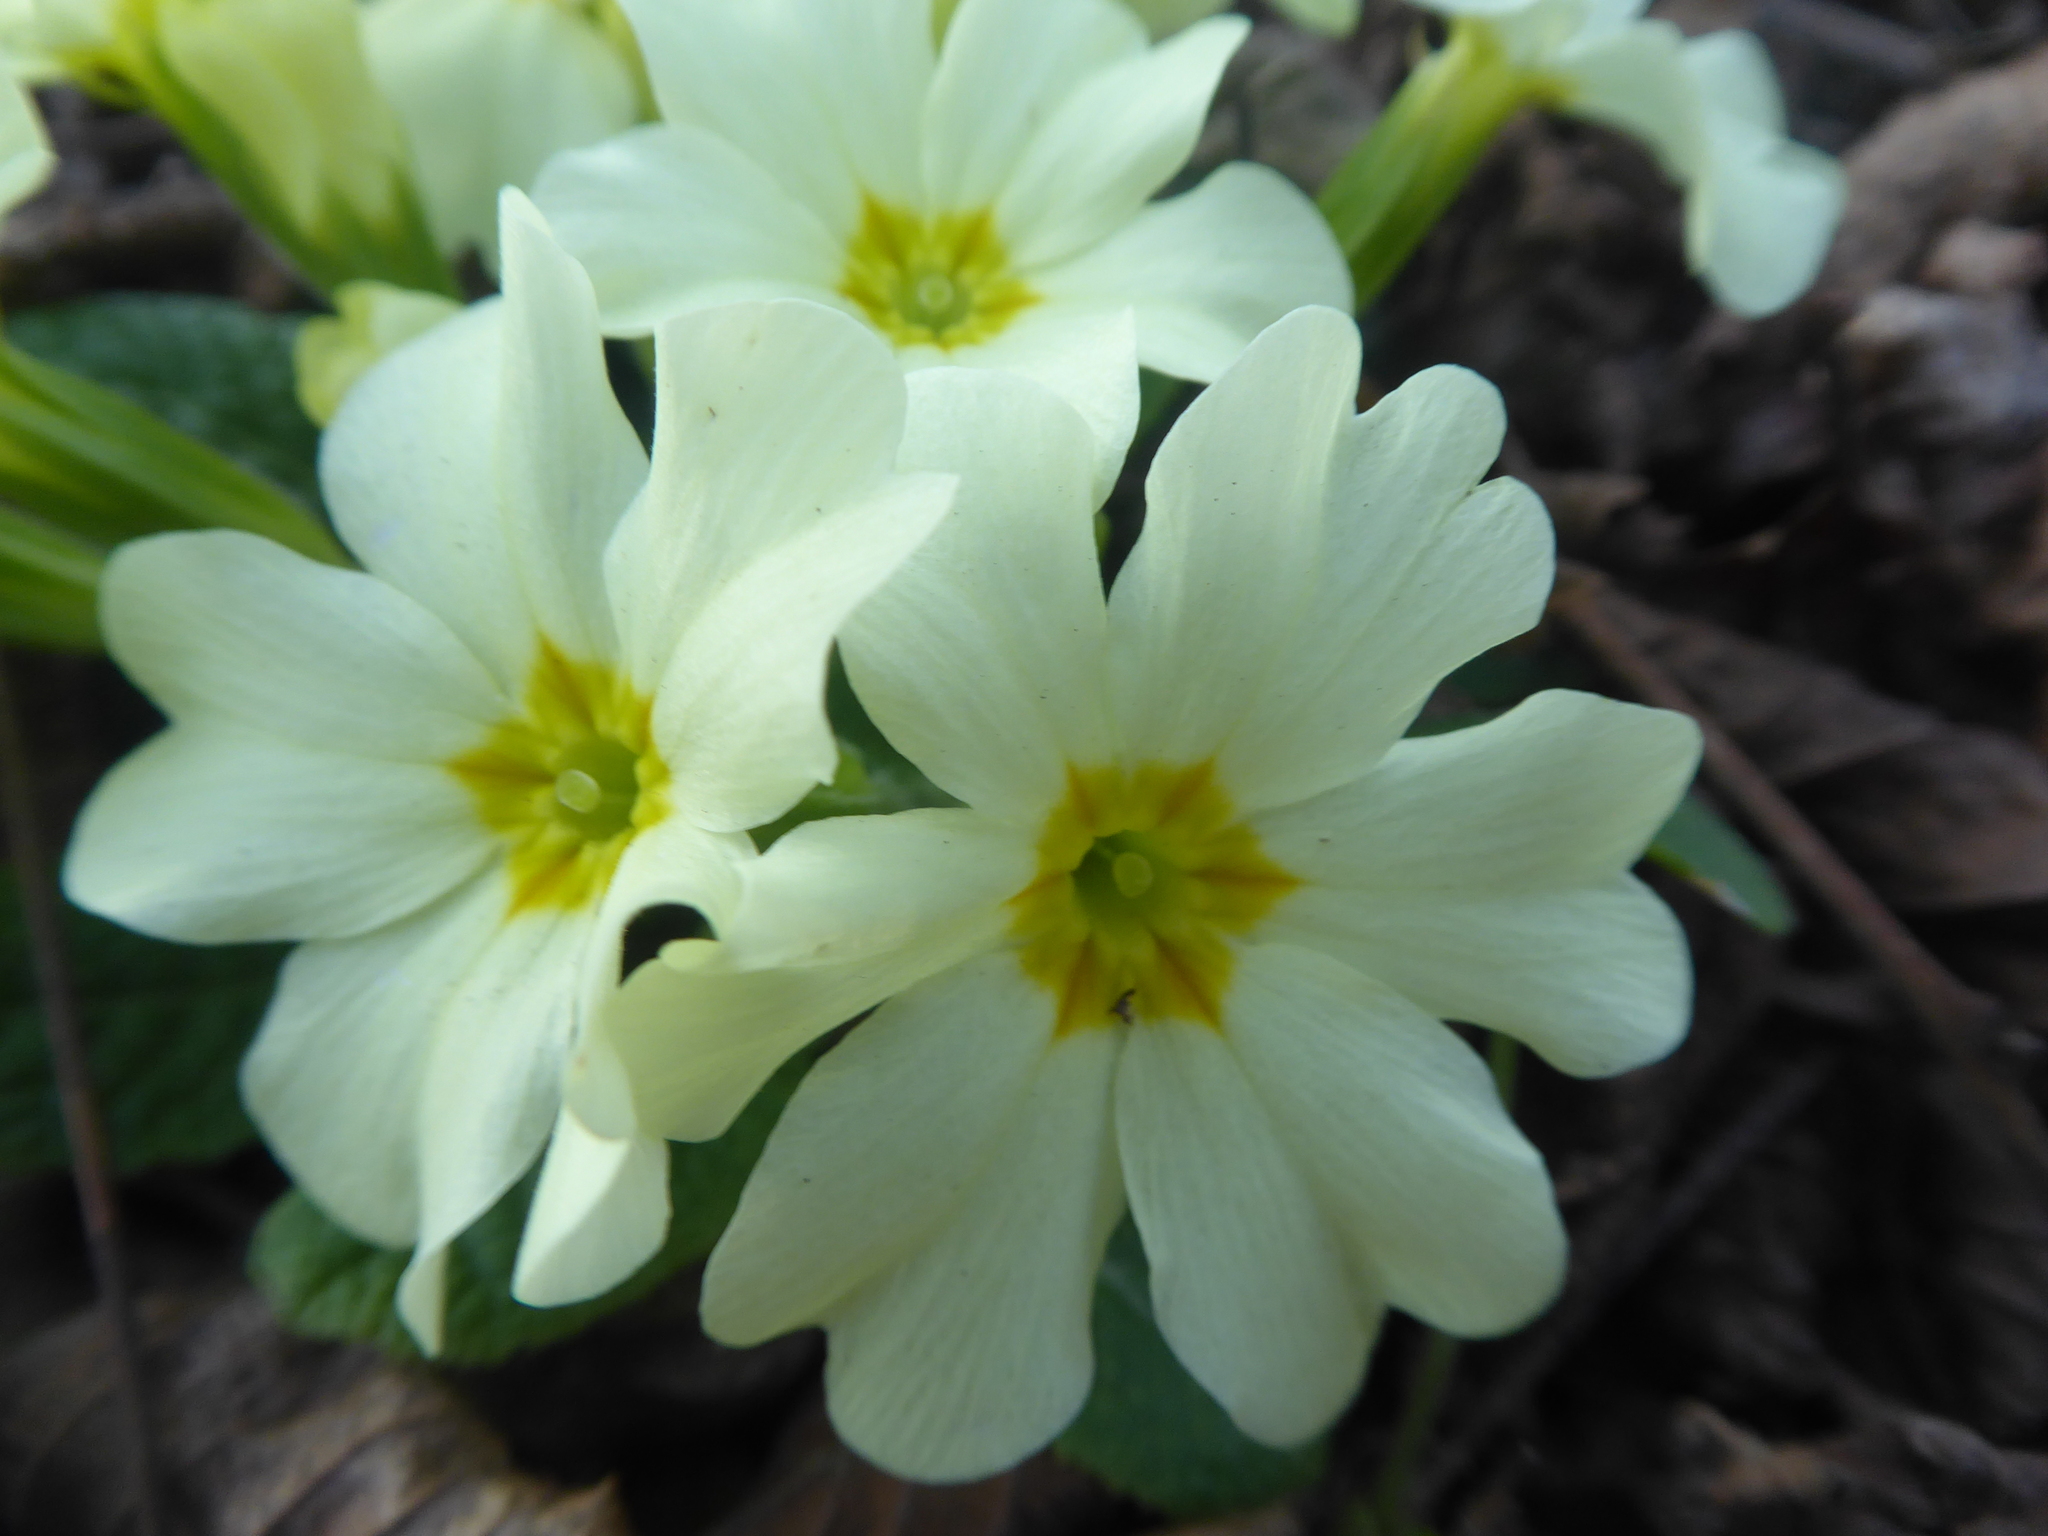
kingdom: Plantae
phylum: Tracheophyta
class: Magnoliopsida
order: Ericales
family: Primulaceae
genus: Primula
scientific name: Primula vulgaris
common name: Primrose
